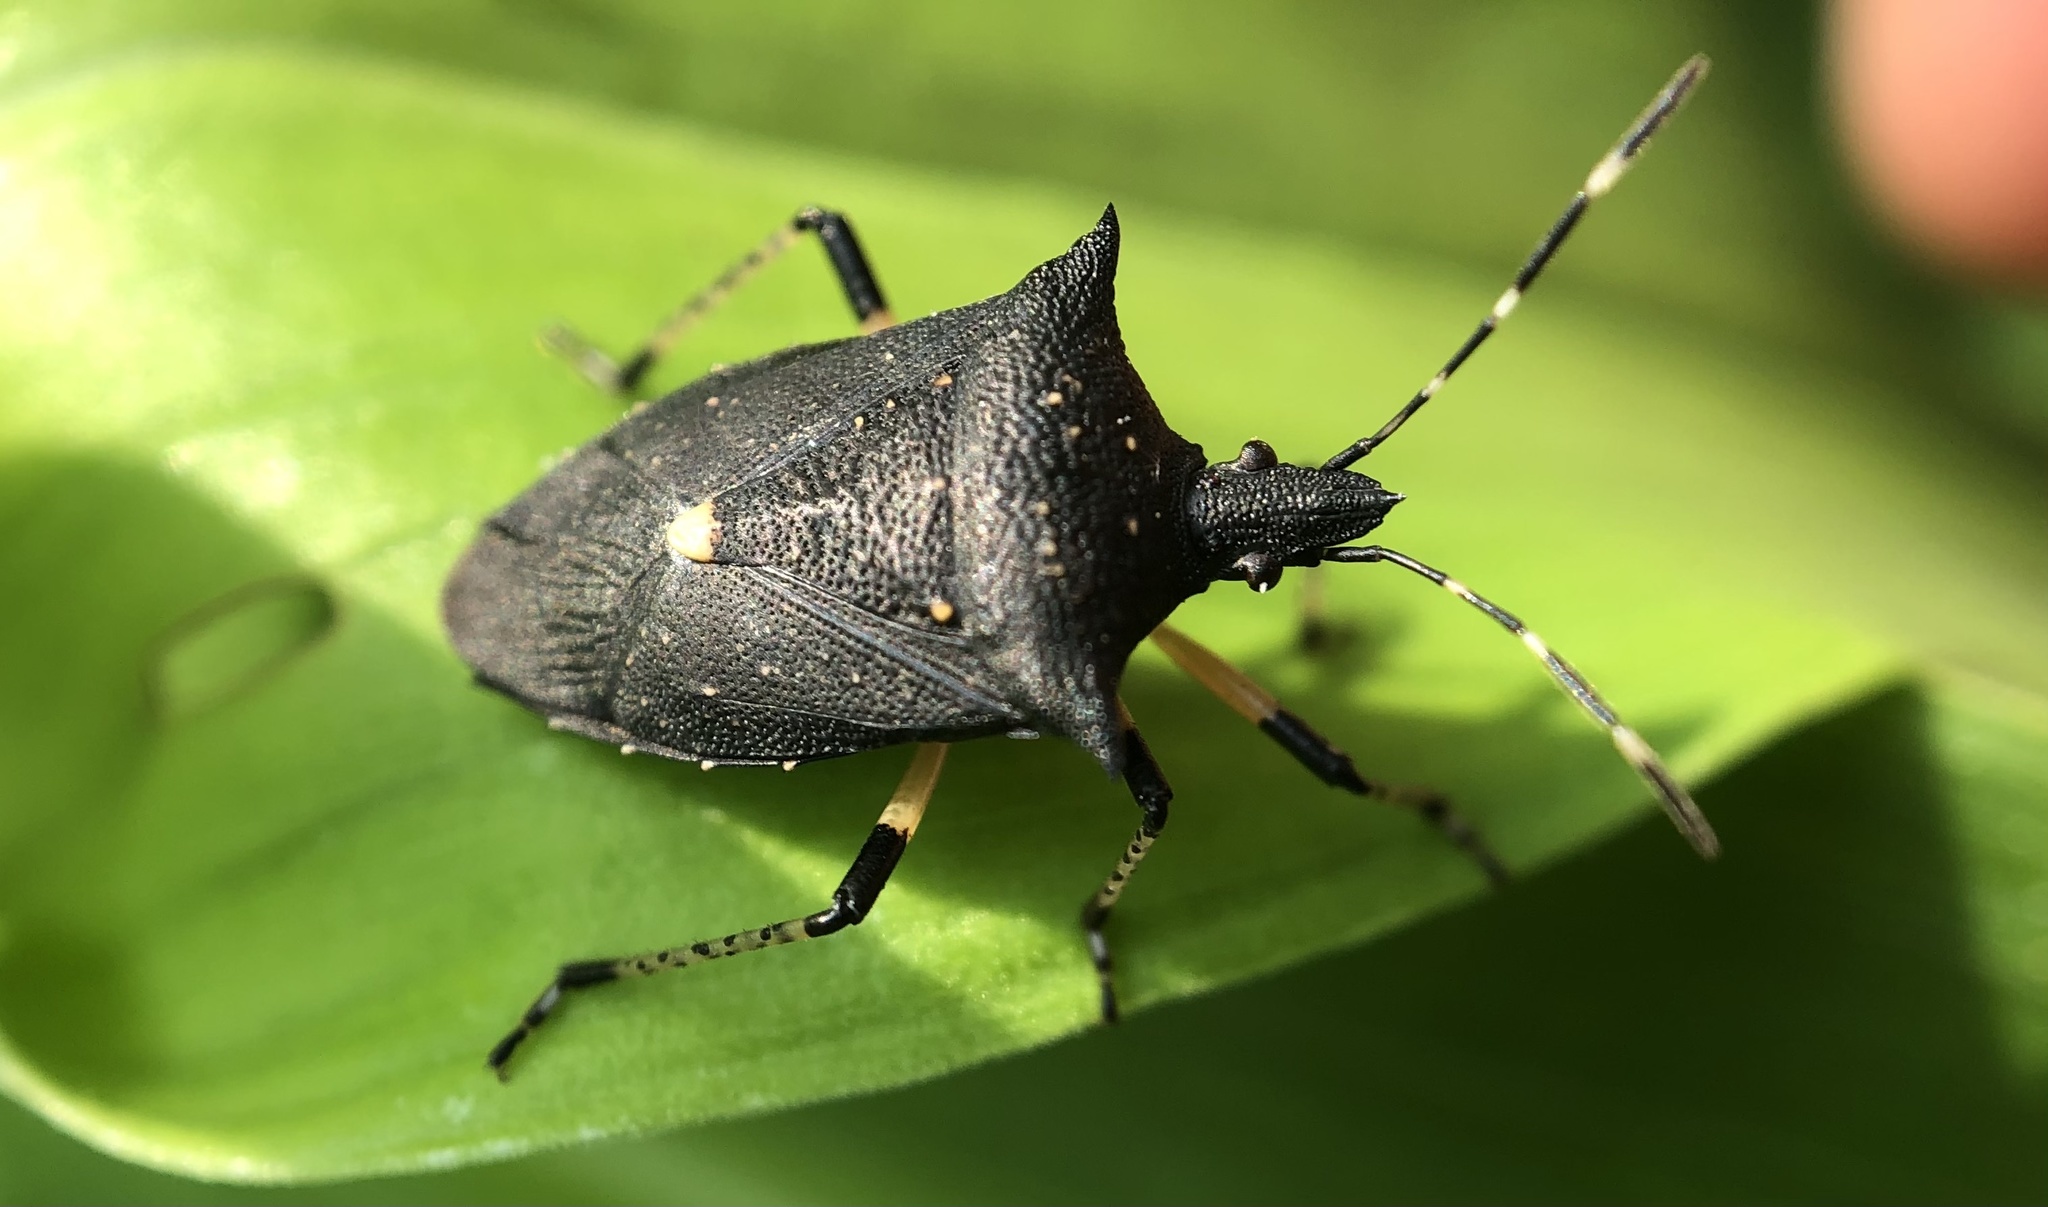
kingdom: Animalia
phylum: Arthropoda
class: Insecta
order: Hemiptera
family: Pentatomidae
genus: Proxys
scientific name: Proxys punctulatus
